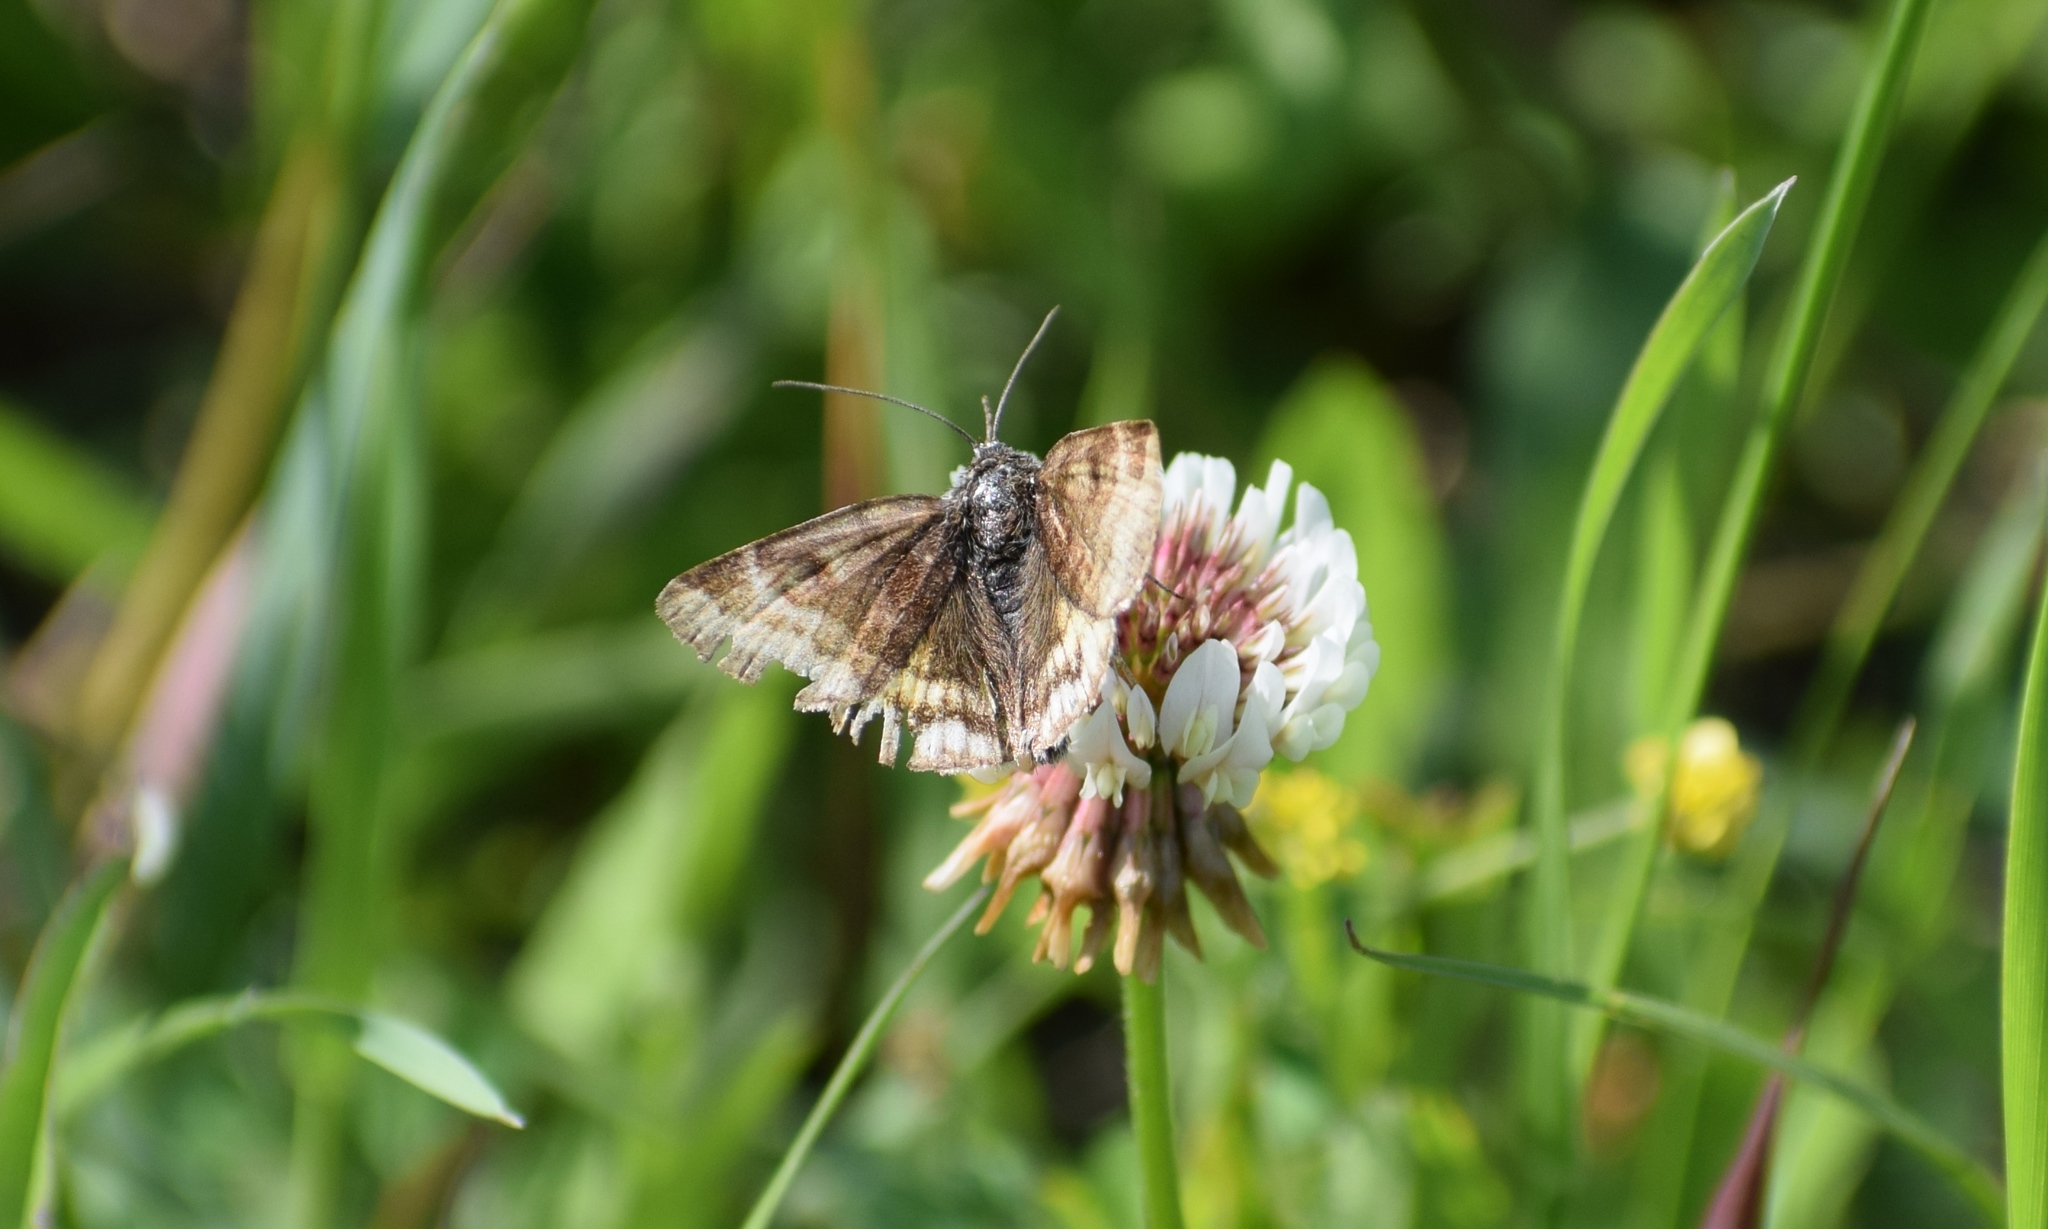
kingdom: Animalia
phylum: Arthropoda
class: Insecta
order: Lepidoptera
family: Erebidae
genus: Euclidia
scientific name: Euclidia glyphica
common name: Burnet companion
